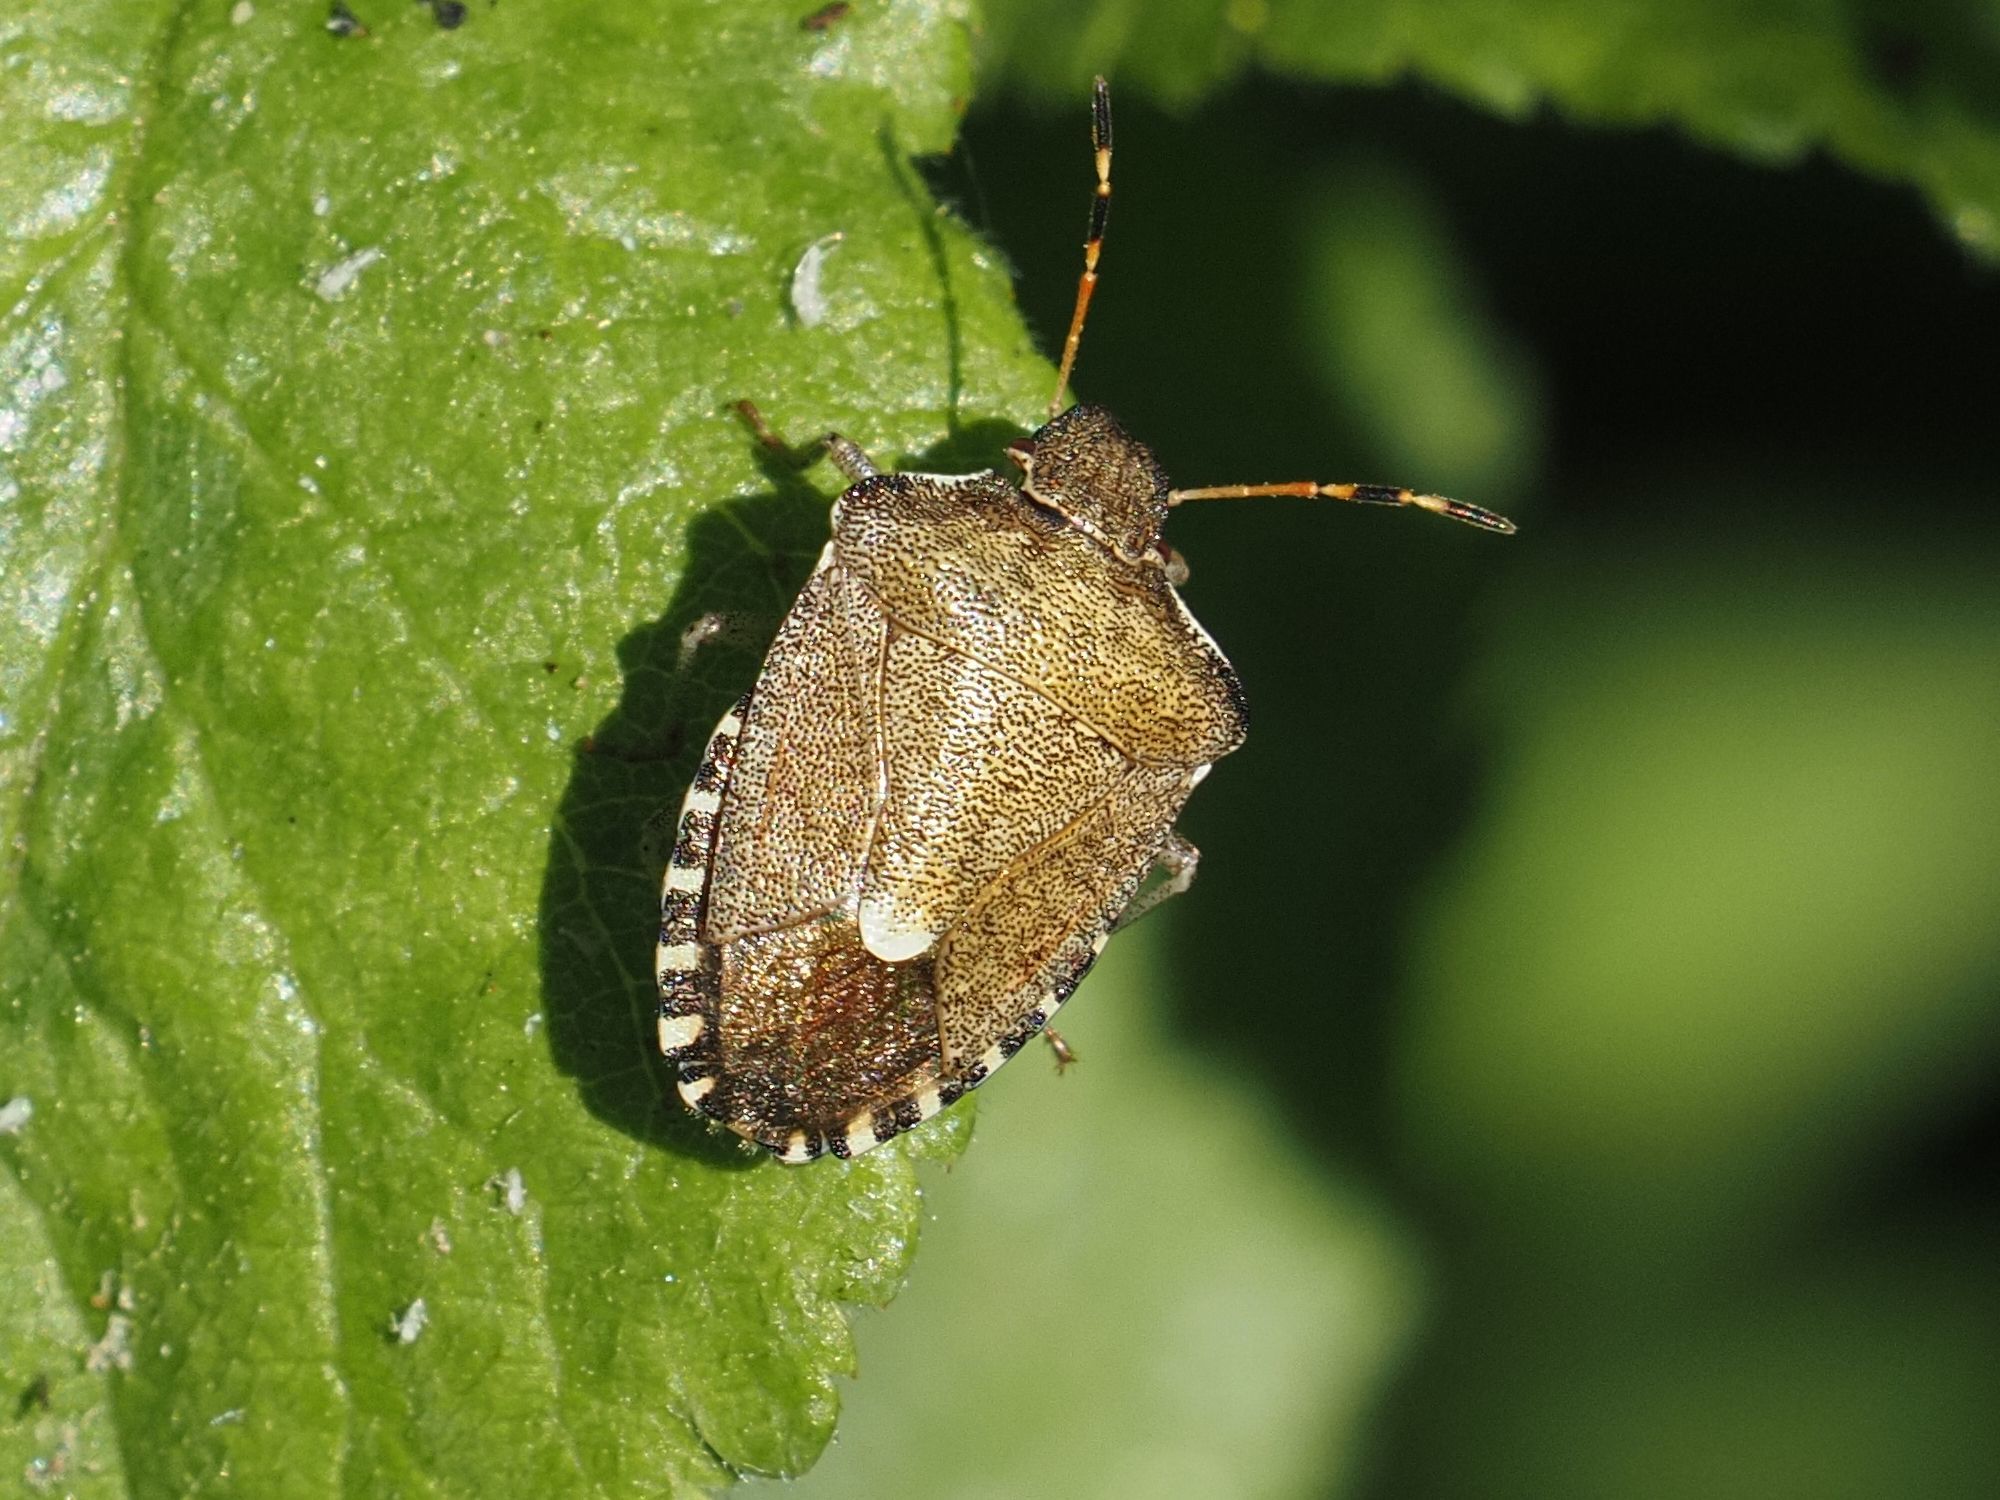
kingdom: Animalia
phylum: Arthropoda
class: Insecta
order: Hemiptera
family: Pentatomidae
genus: Holcostethus
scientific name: Holcostethus strictus
